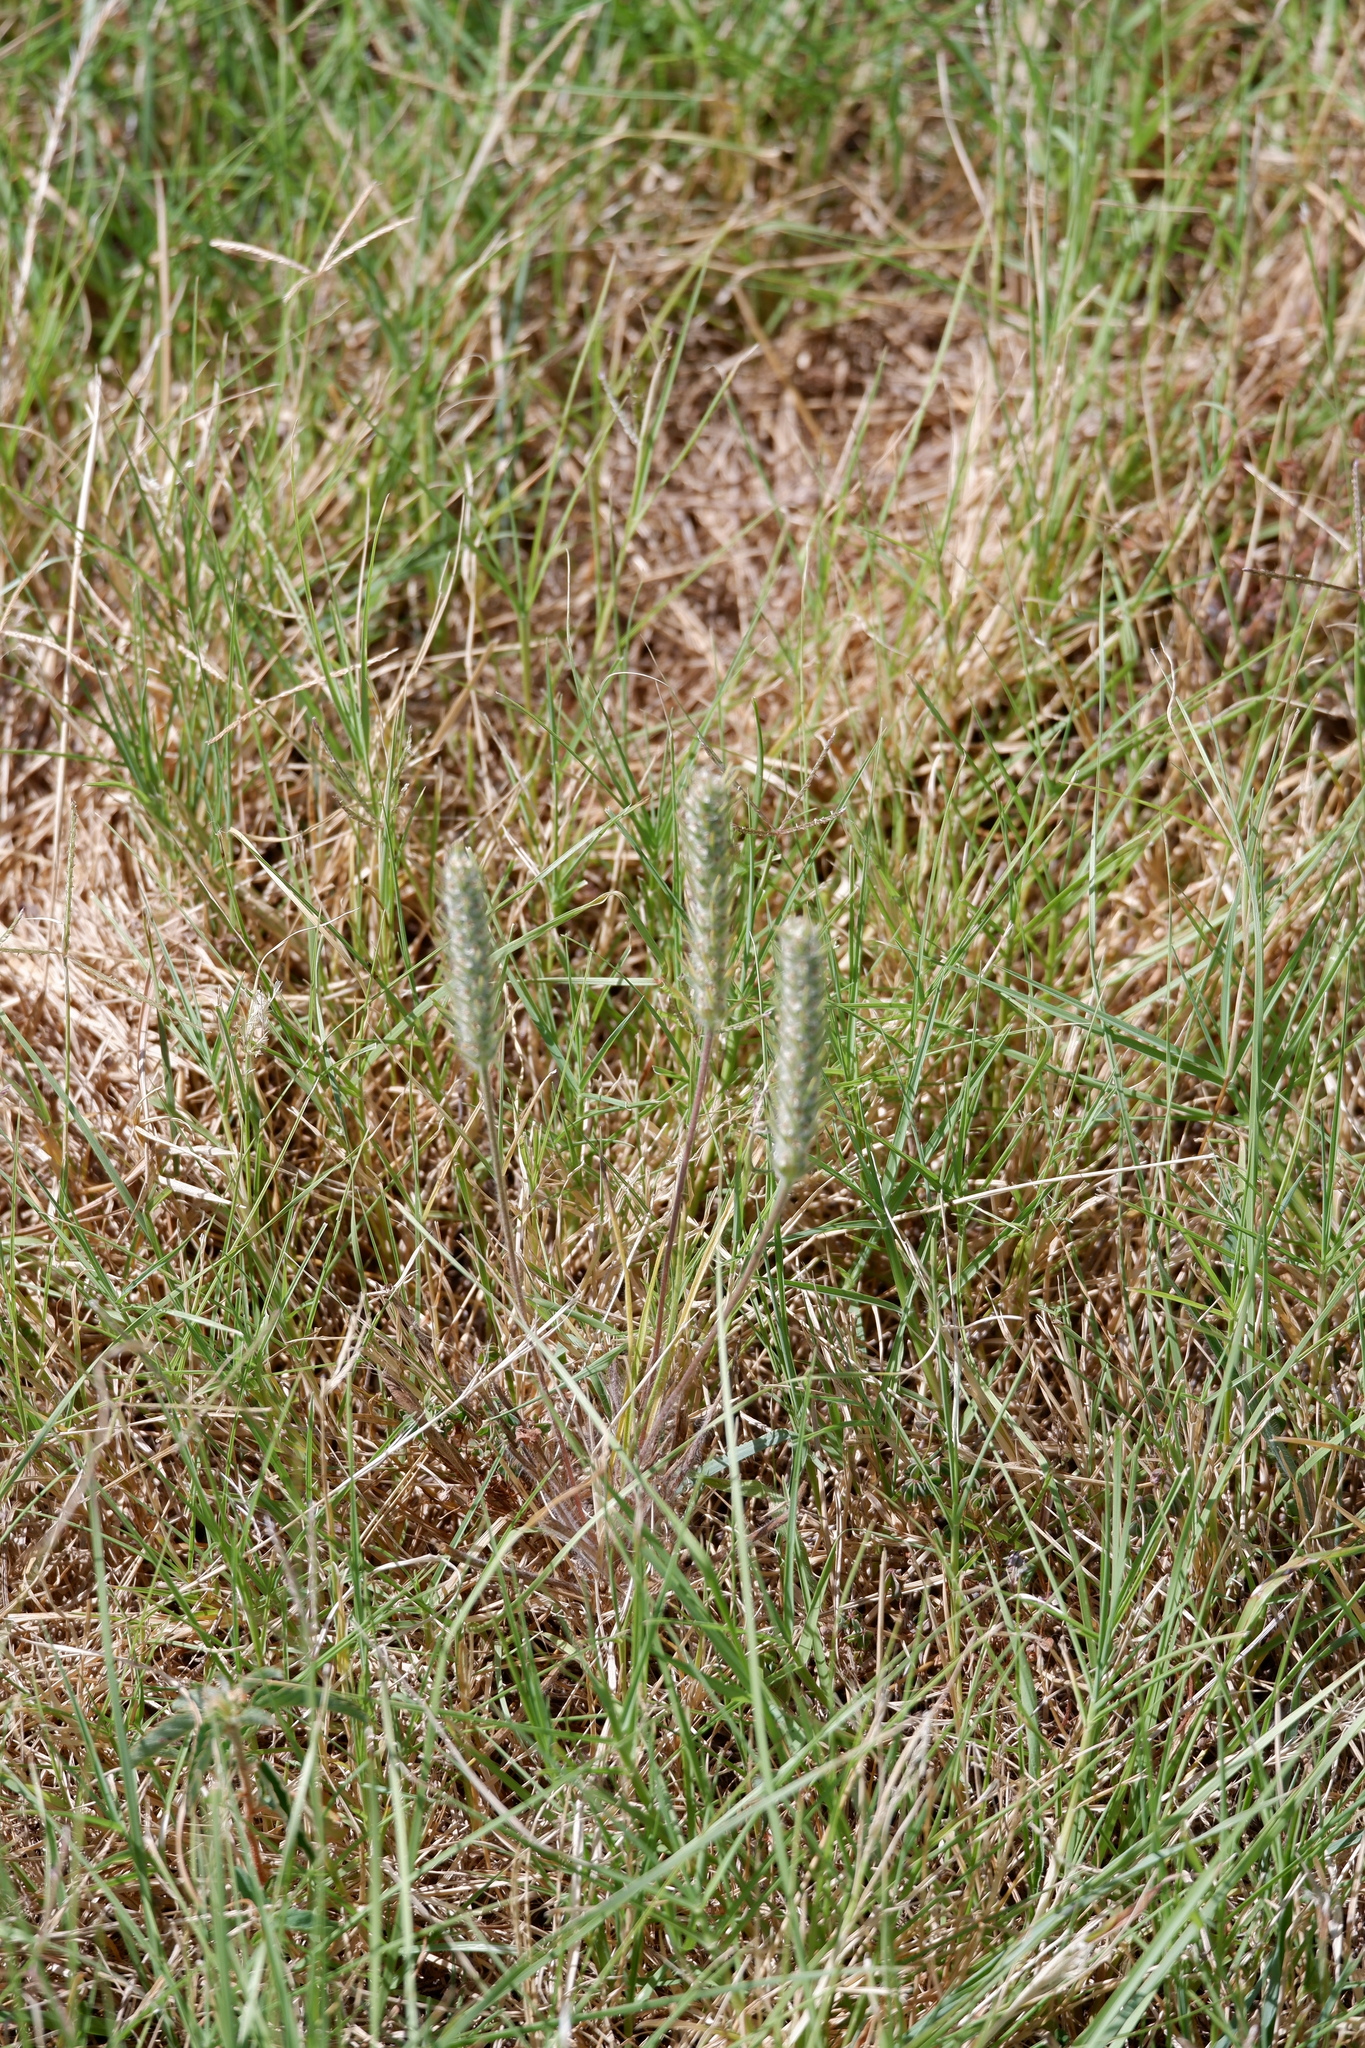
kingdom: Plantae
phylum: Tracheophyta
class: Magnoliopsida
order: Lamiales
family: Plantaginaceae
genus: Plantago
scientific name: Plantago aristata
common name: Bracted plantain
